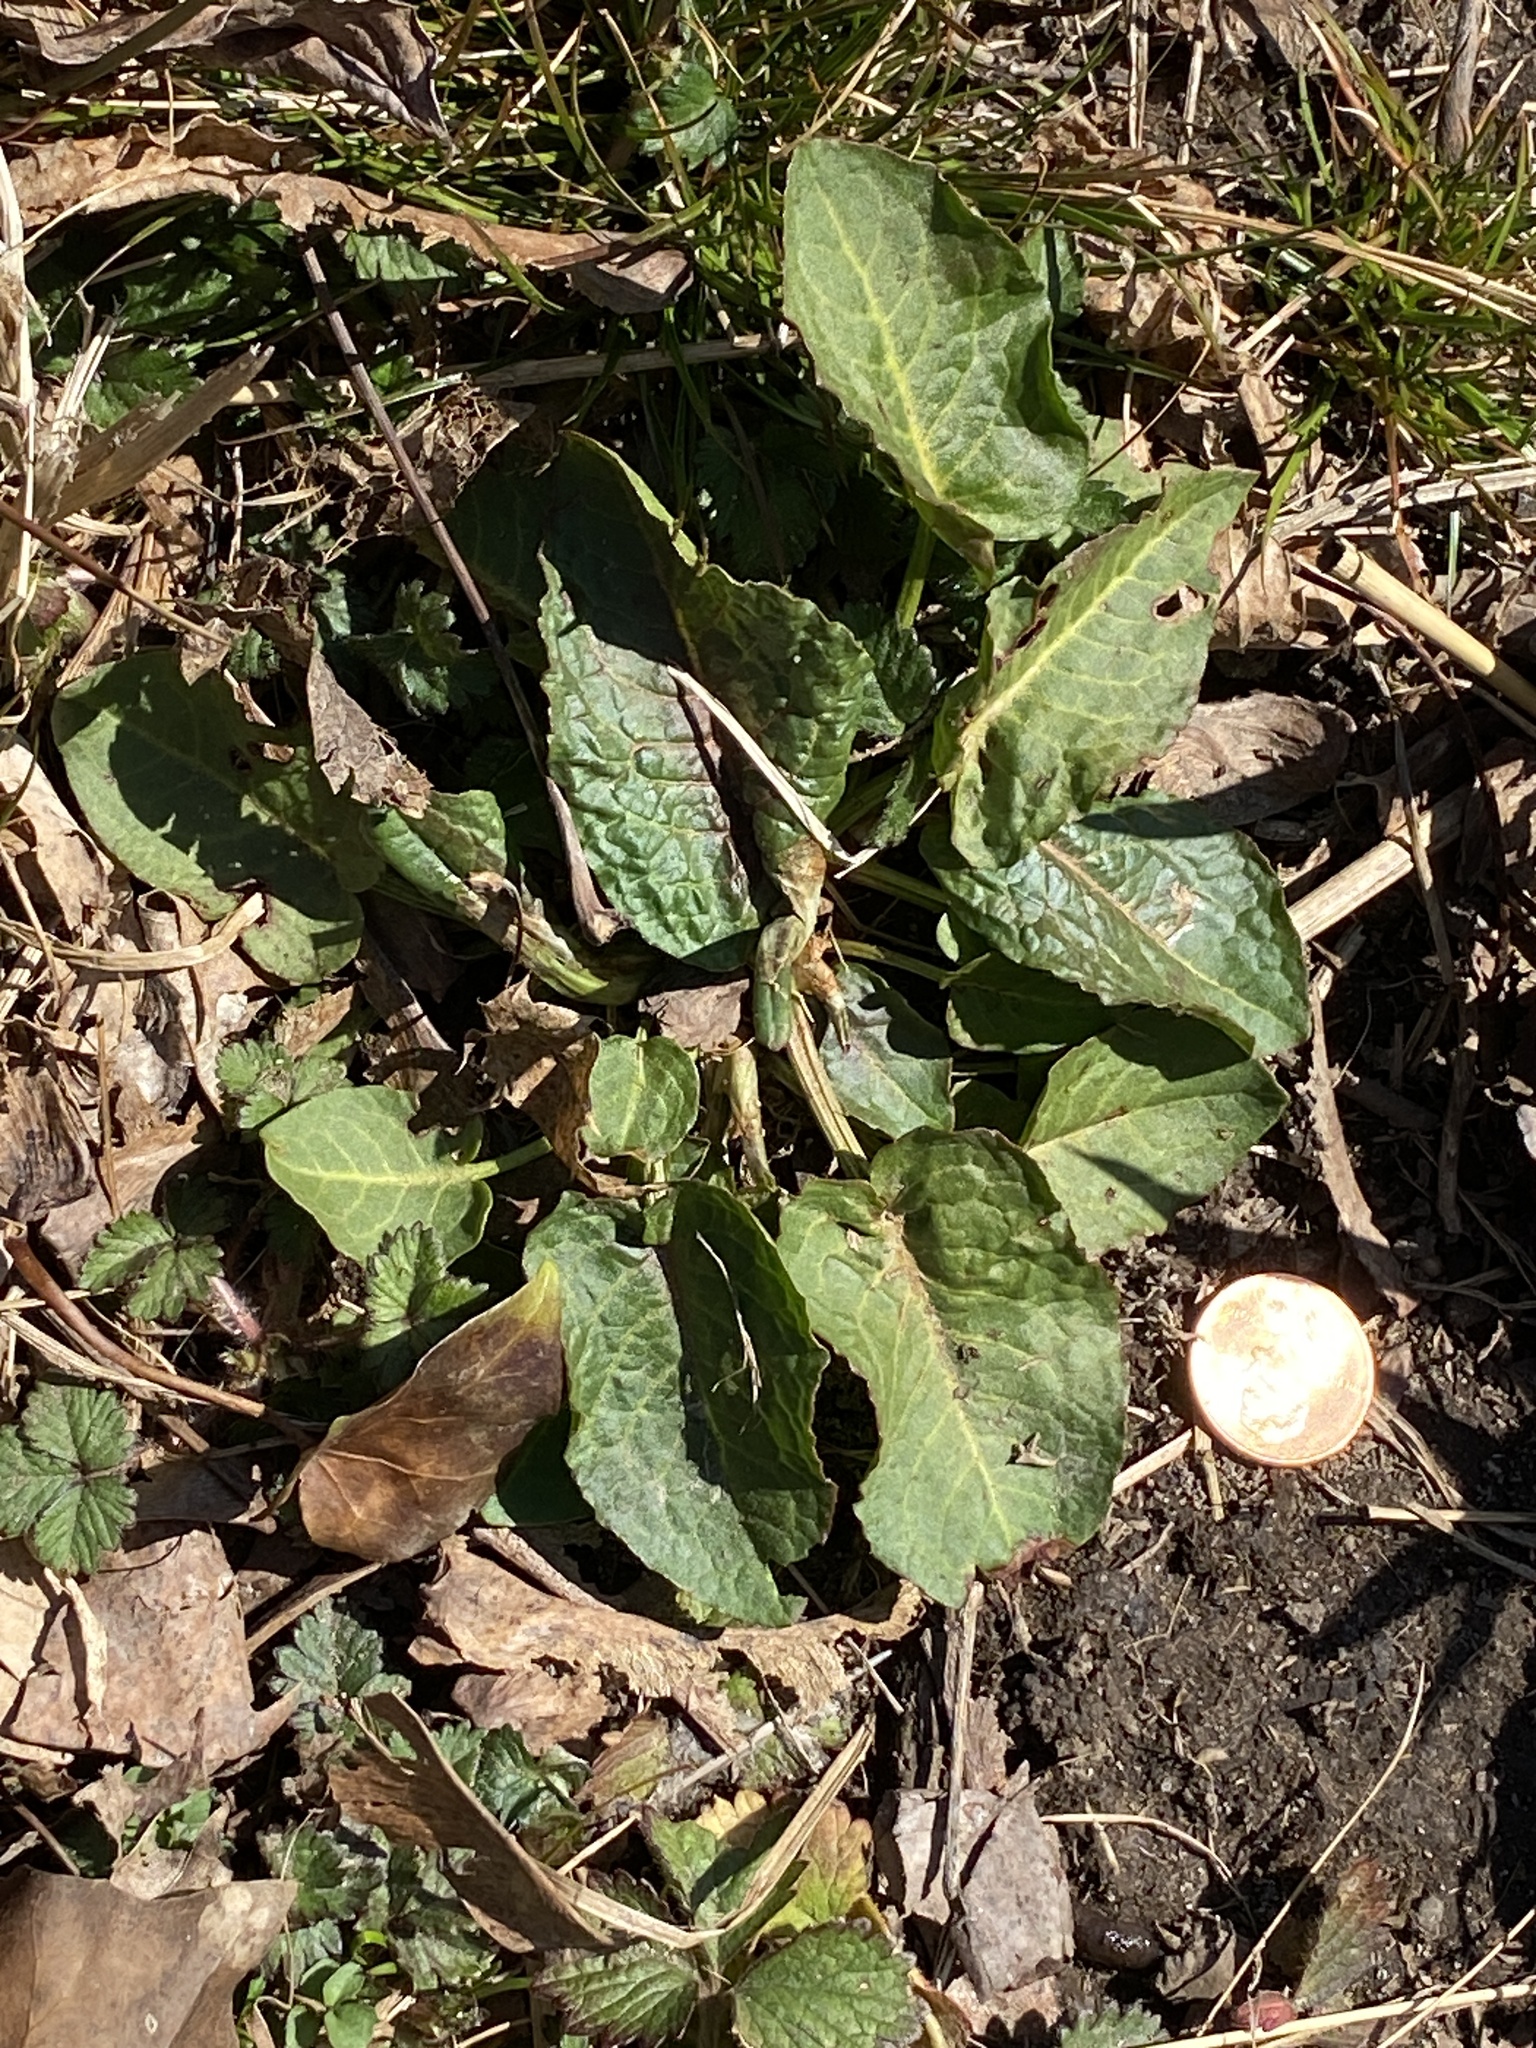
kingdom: Plantae
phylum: Tracheophyta
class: Magnoliopsida
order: Caryophyllales
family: Polygonaceae
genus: Rumex
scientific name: Rumex obtusifolius
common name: Bitter dock
